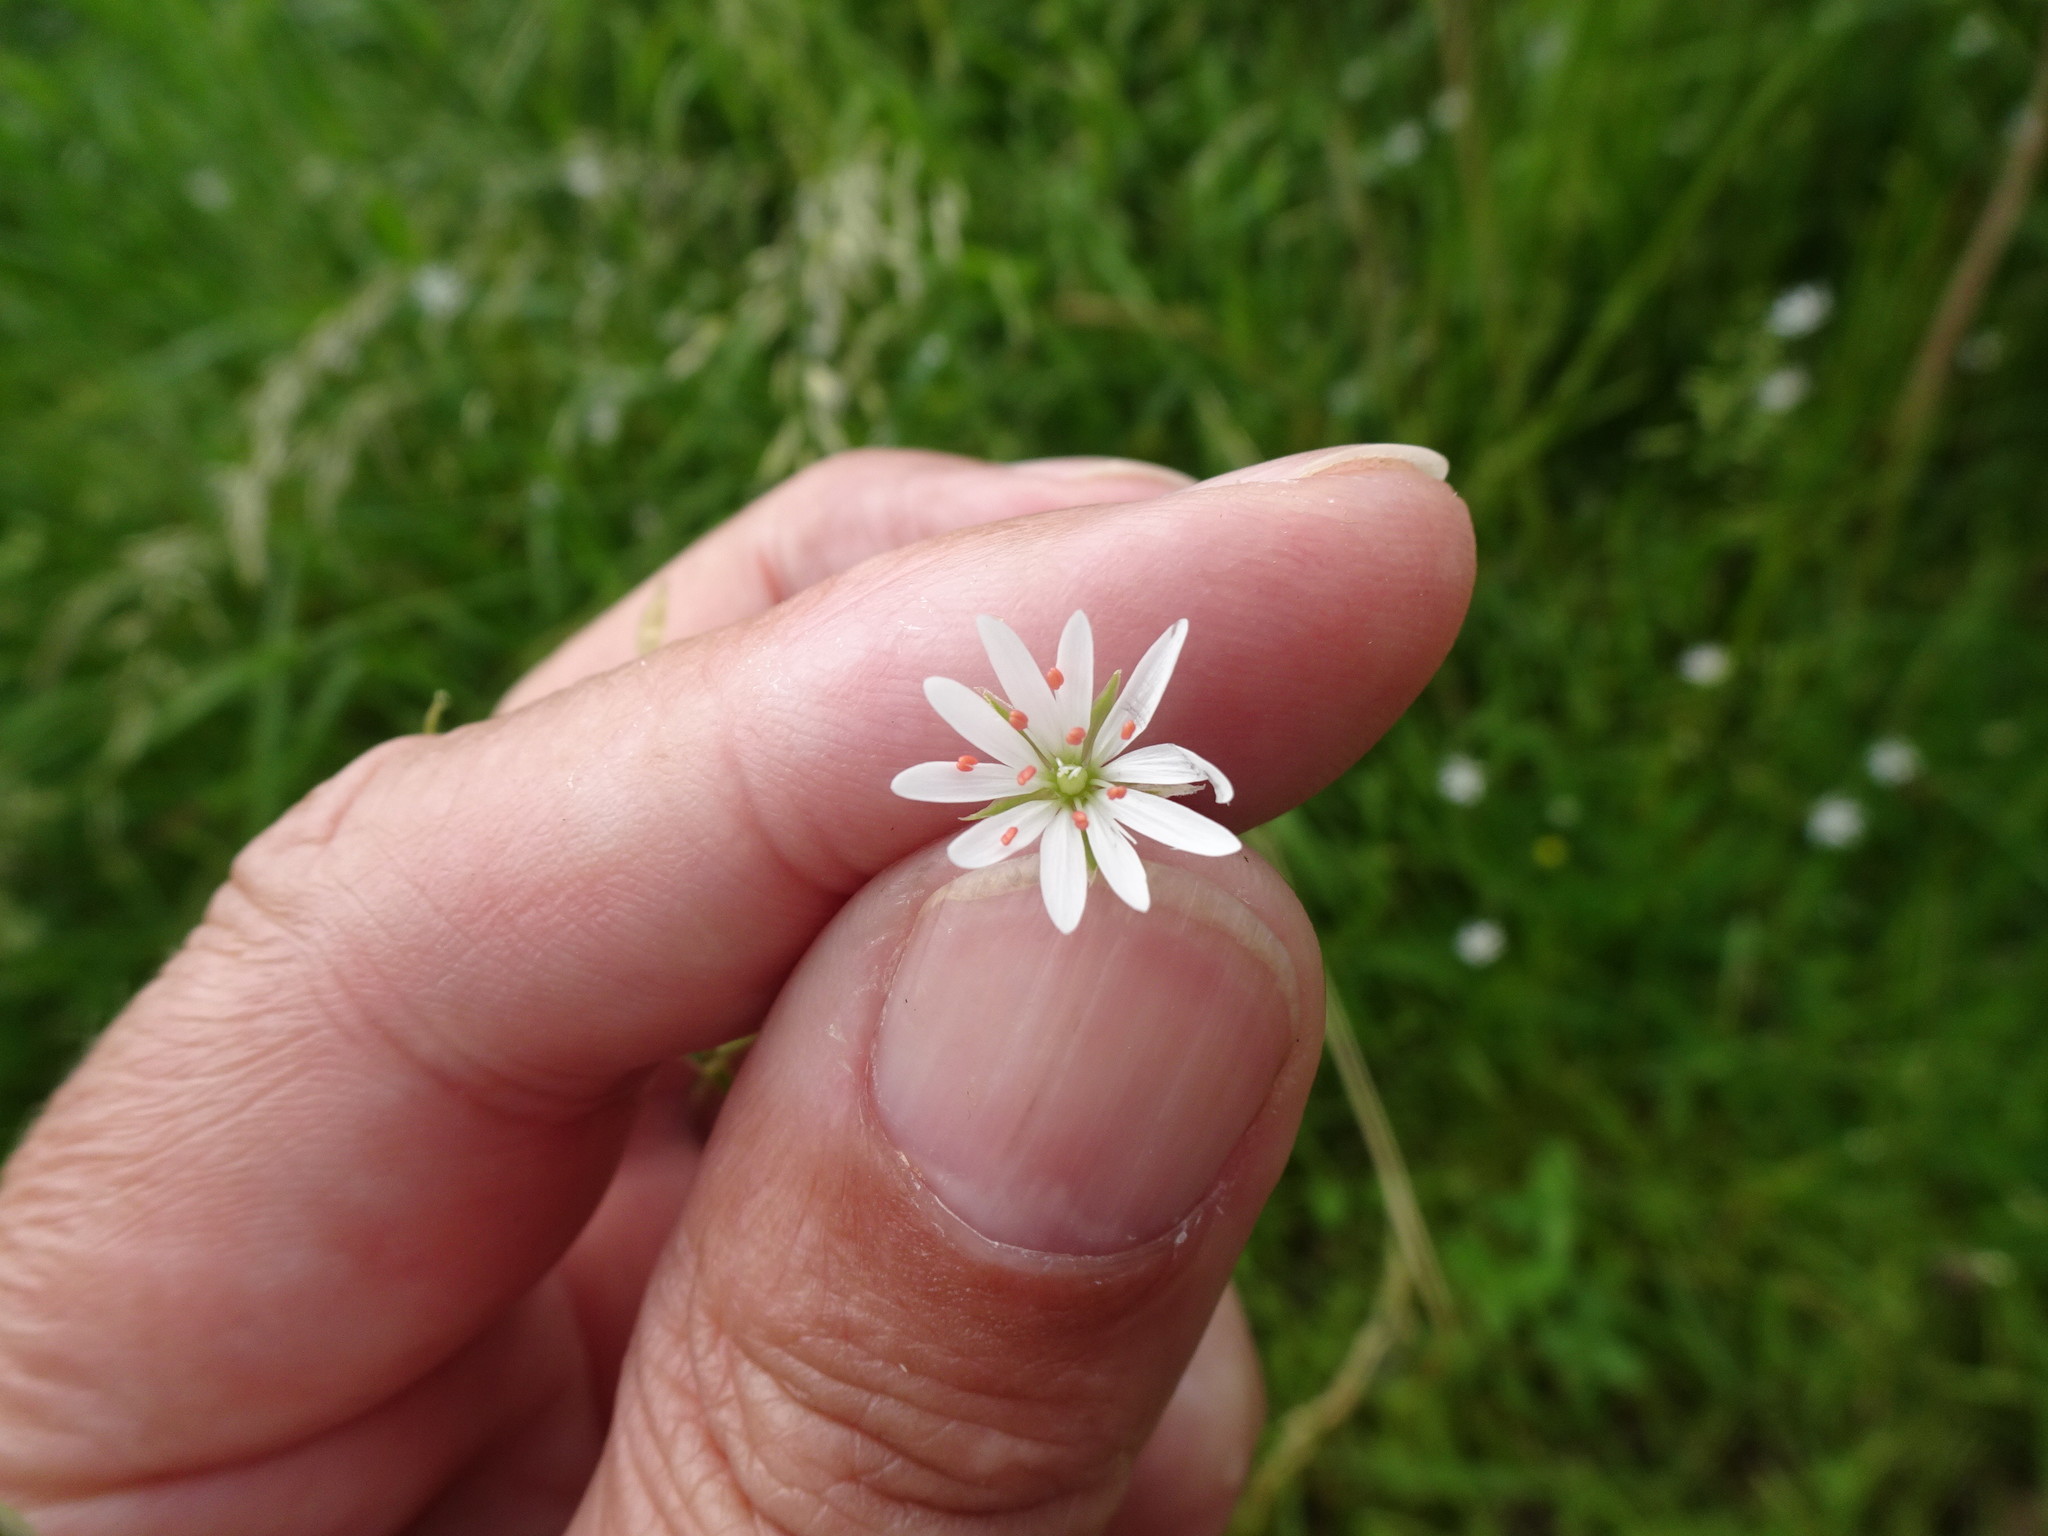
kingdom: Plantae
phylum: Tracheophyta
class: Magnoliopsida
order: Caryophyllales
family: Caryophyllaceae
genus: Stellaria
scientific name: Stellaria graminea
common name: Grass-like starwort
